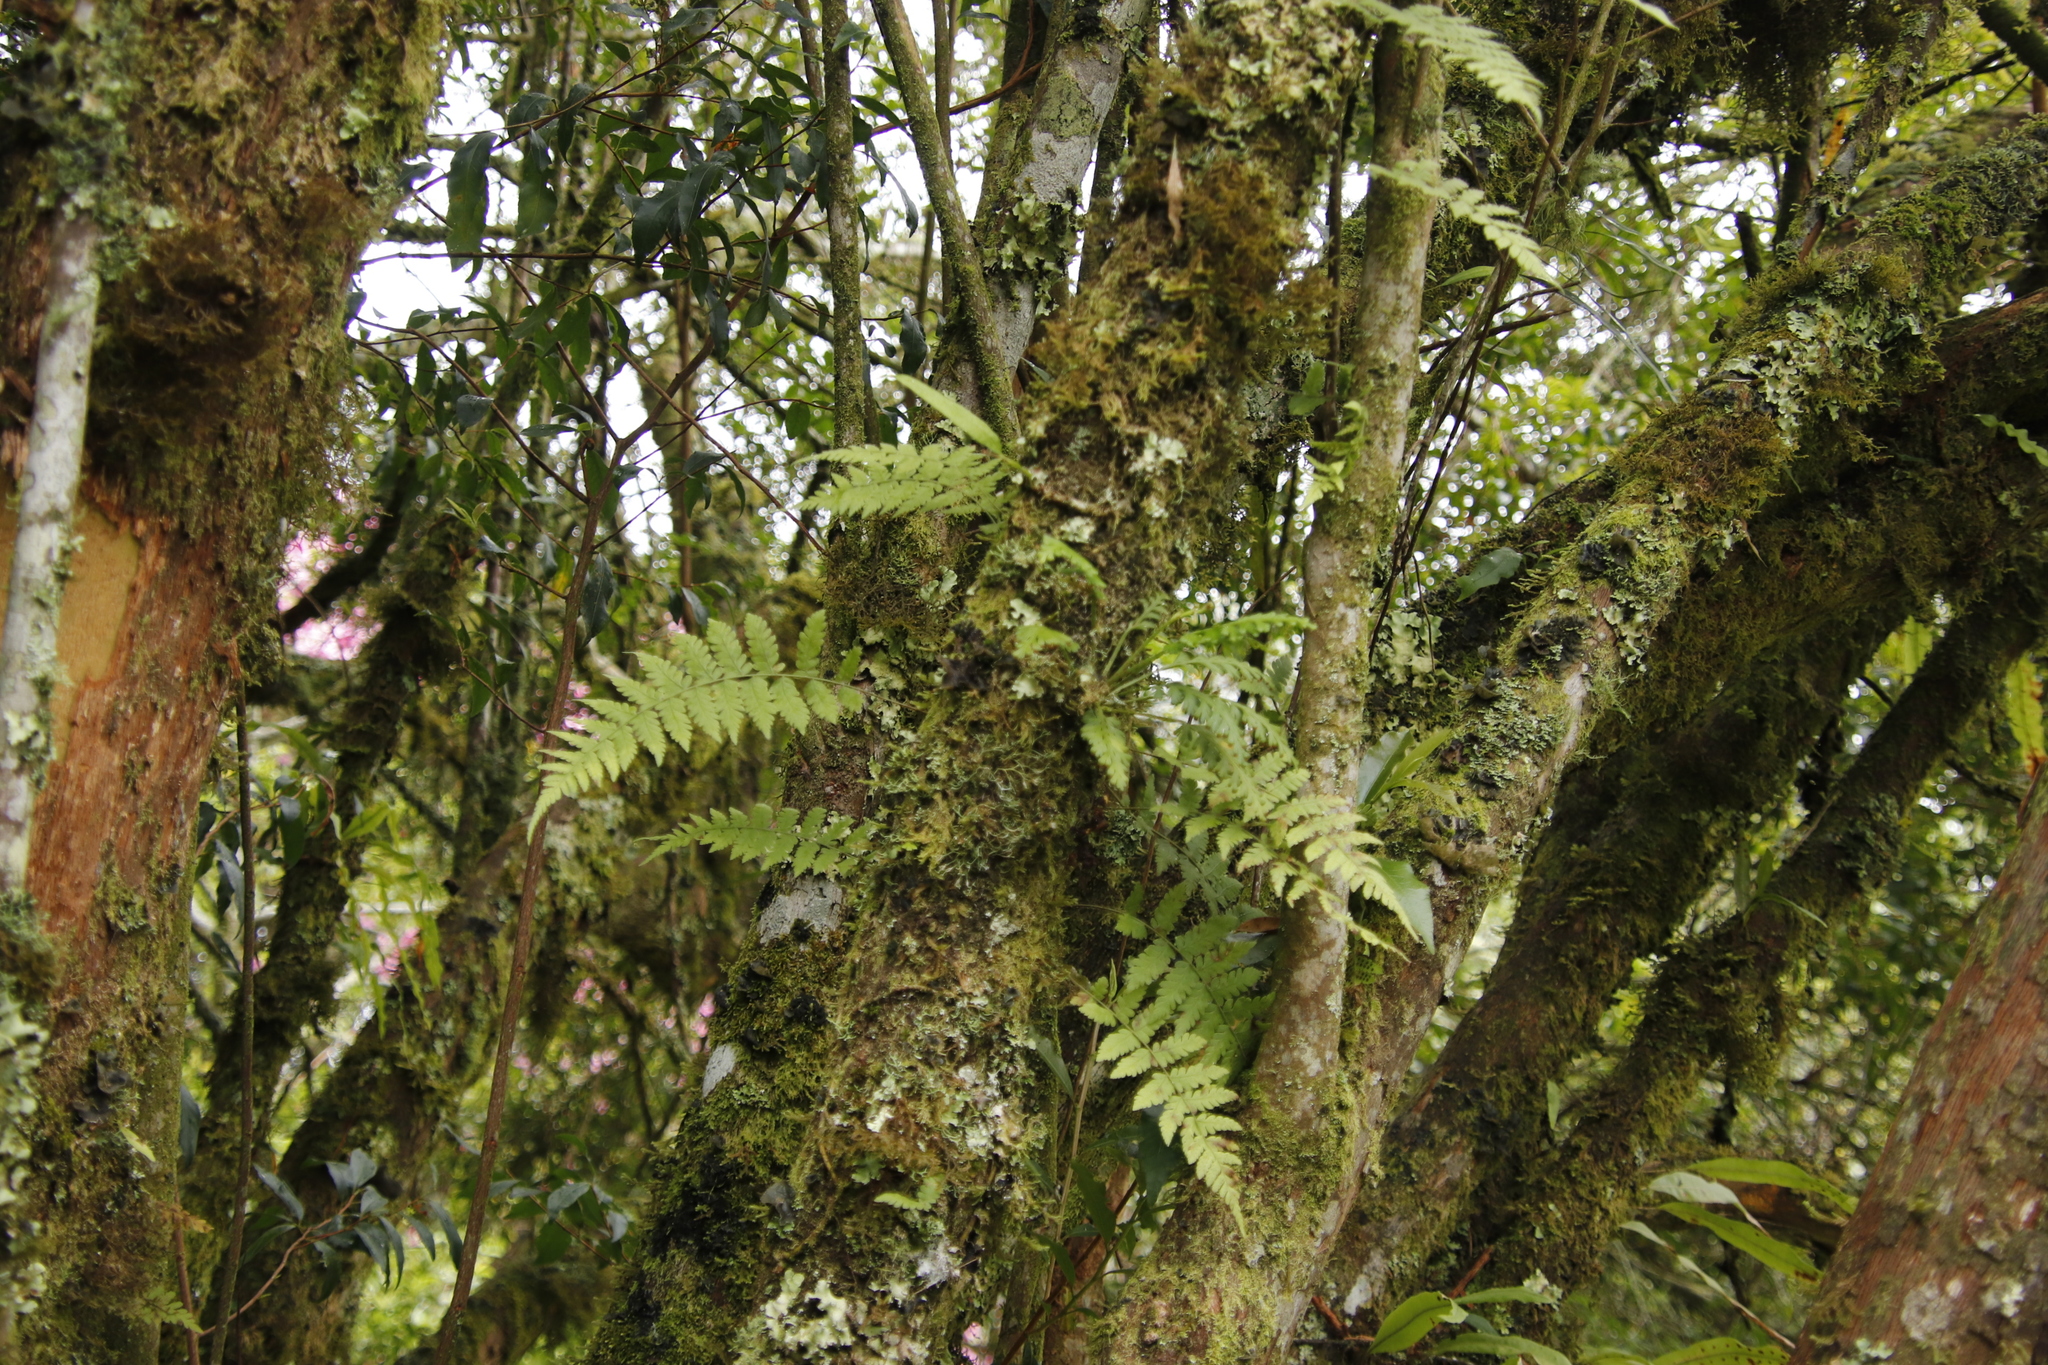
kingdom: Plantae
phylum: Tracheophyta
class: Polypodiopsida
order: Polypodiales
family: Tectariaceae
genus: Arthropteris
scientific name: Arthropteris monocarpa
